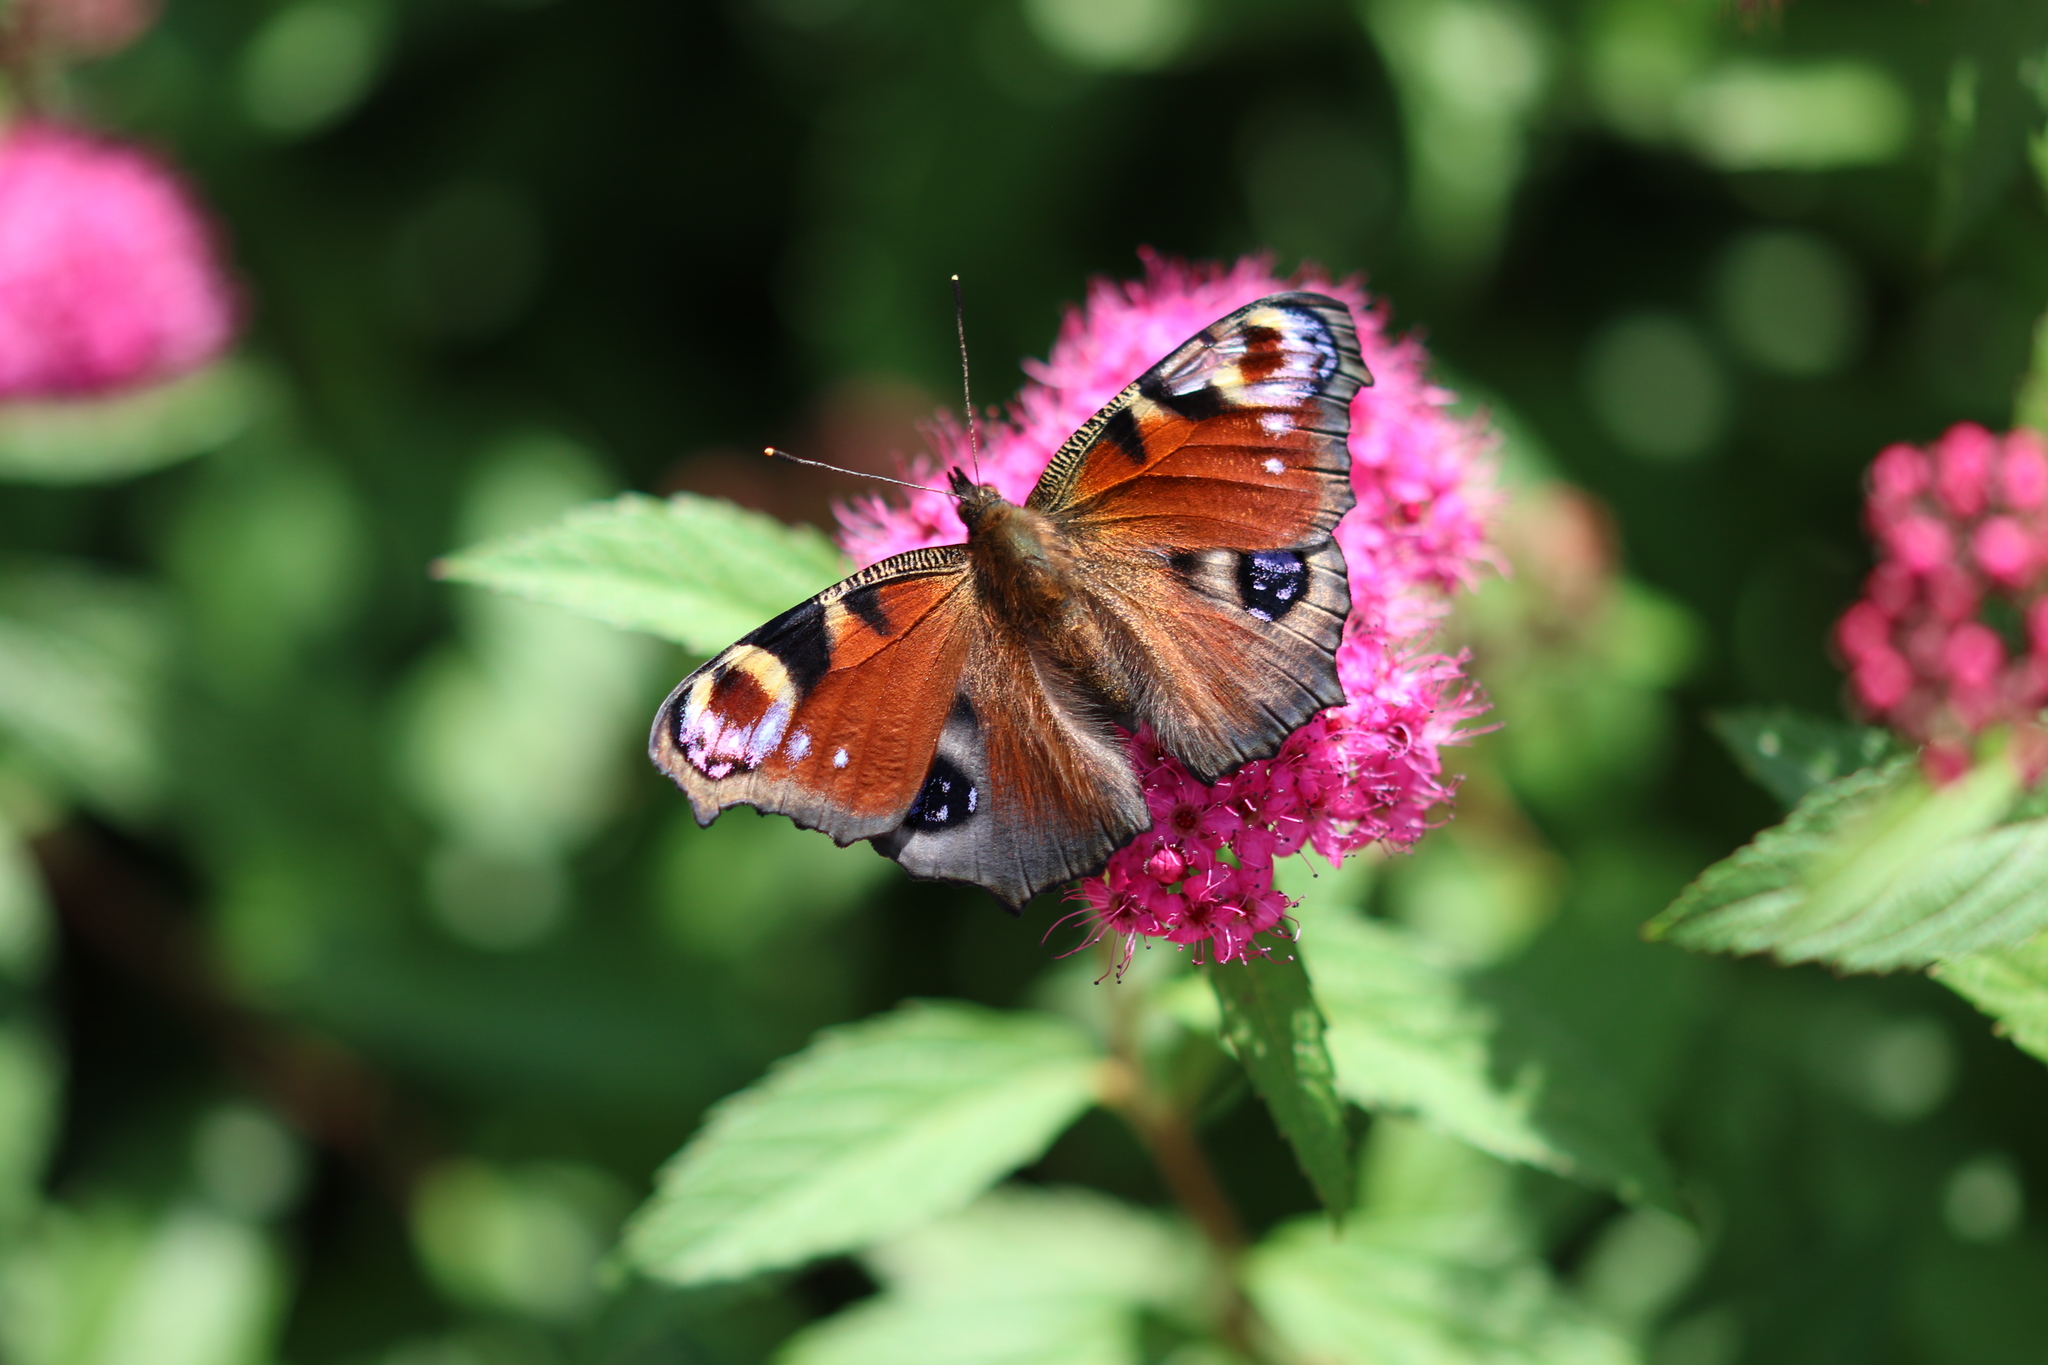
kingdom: Animalia
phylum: Arthropoda
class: Insecta
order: Lepidoptera
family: Nymphalidae
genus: Aglais
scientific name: Aglais io
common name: Peacock
